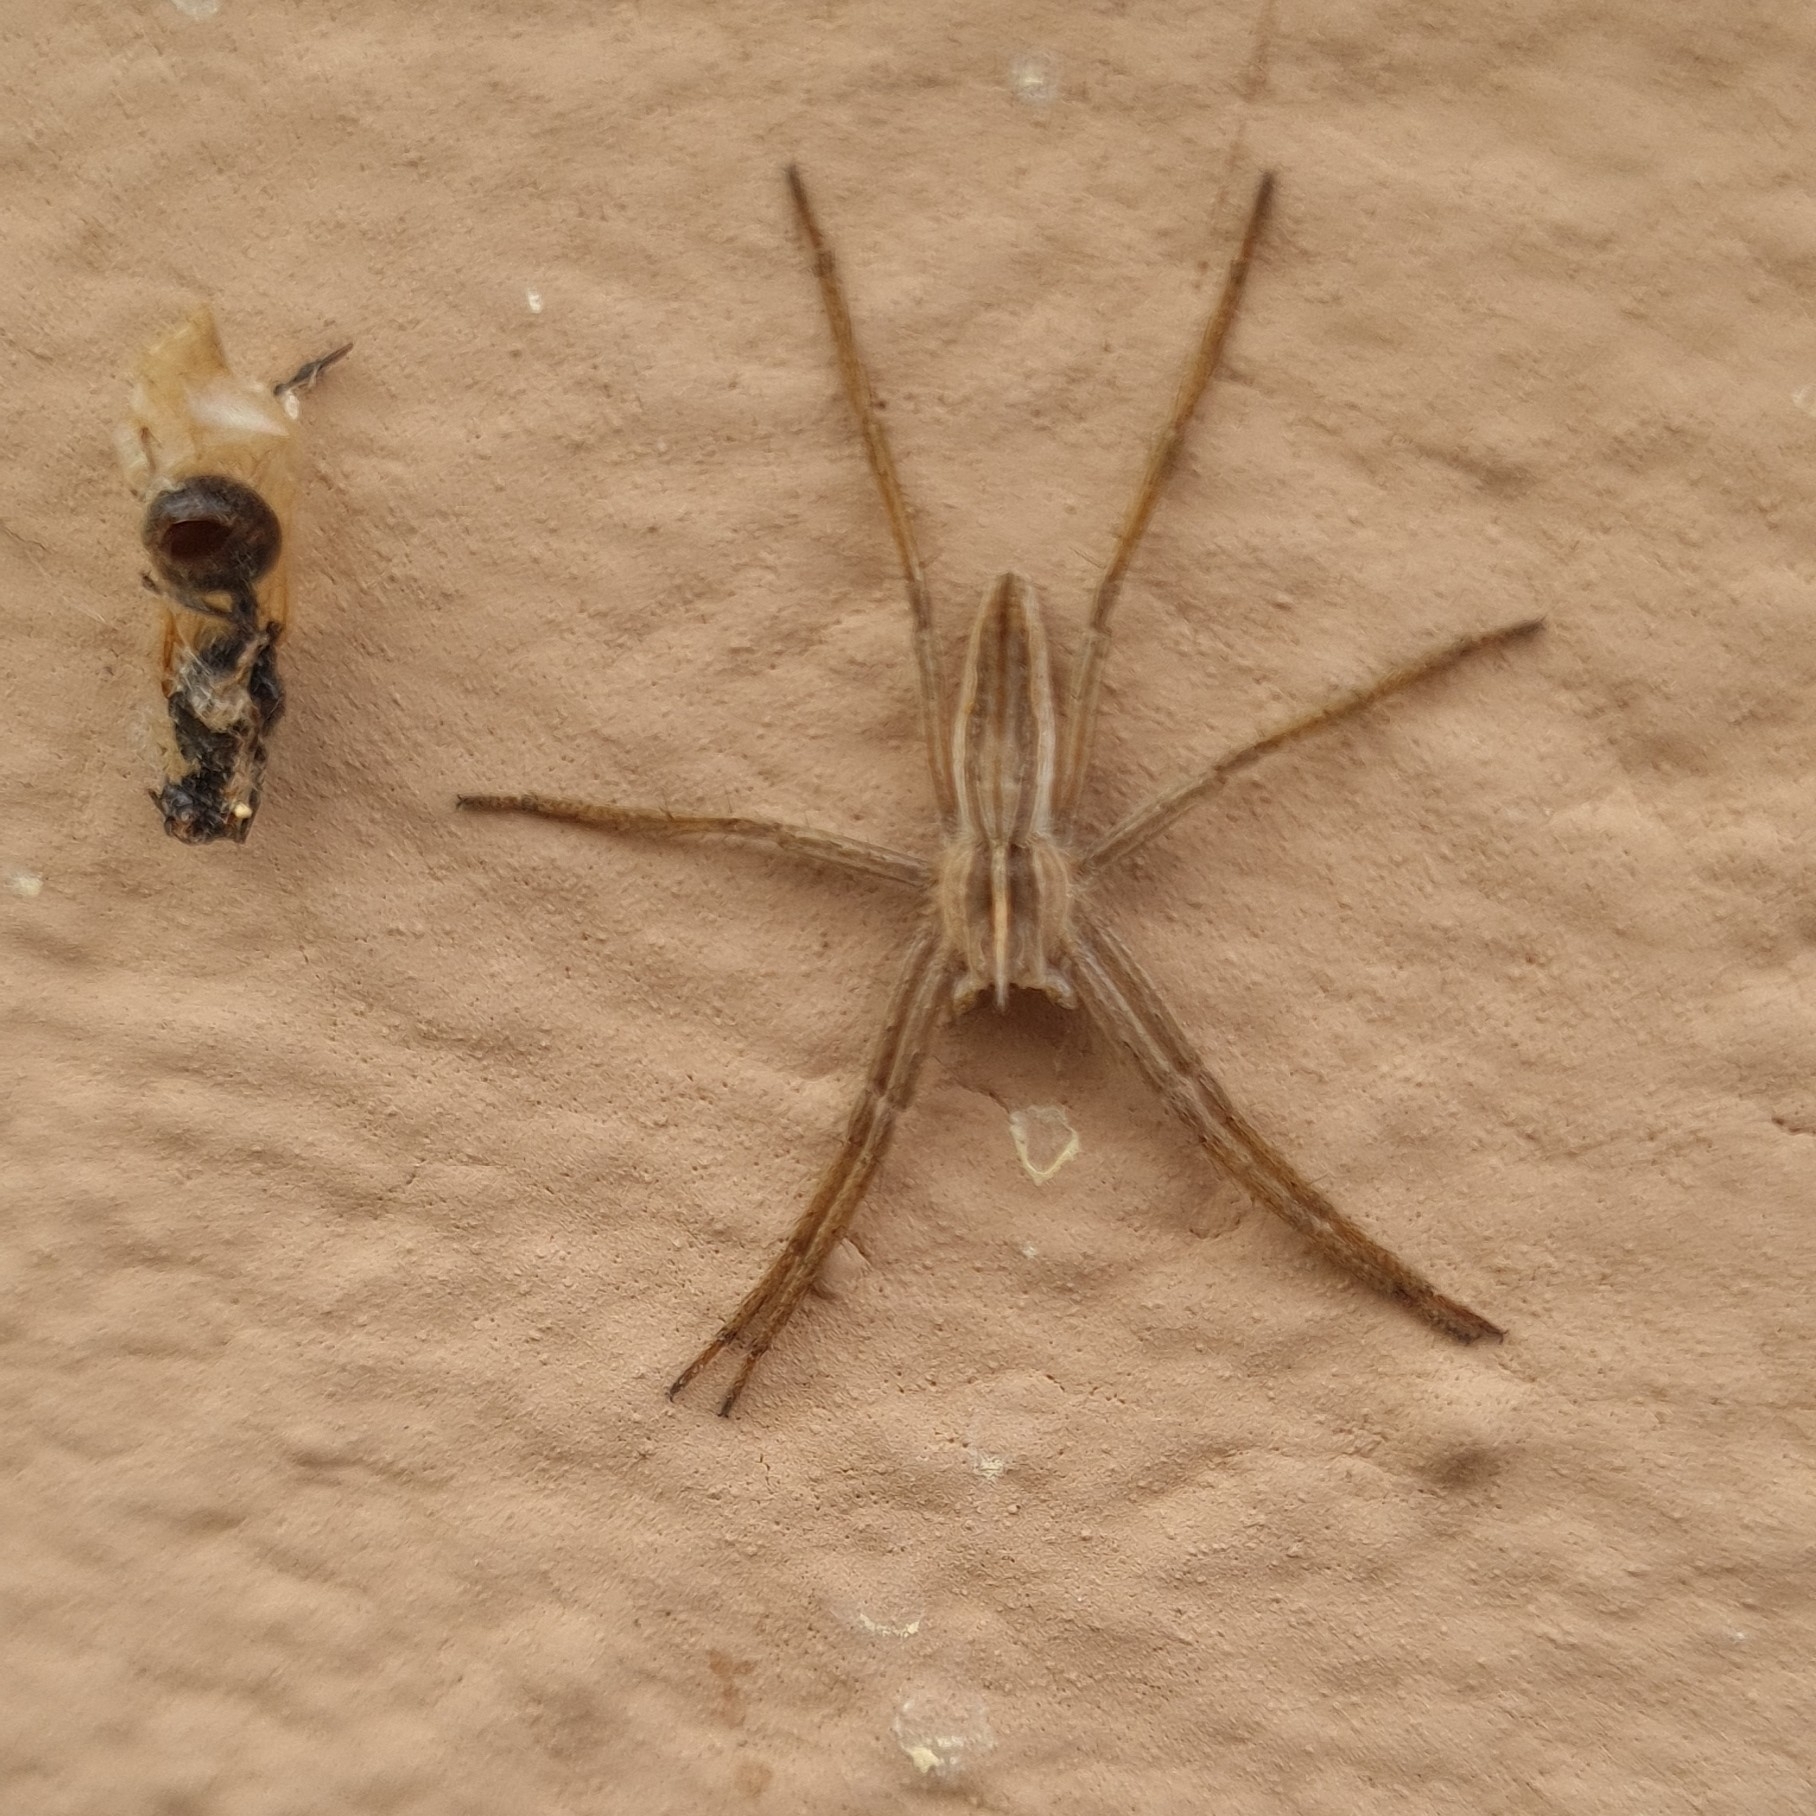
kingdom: Animalia
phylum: Arthropoda
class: Arachnida
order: Araneae
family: Pisauridae
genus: Pisaura
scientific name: Pisaura mirabilis
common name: Tent spider
